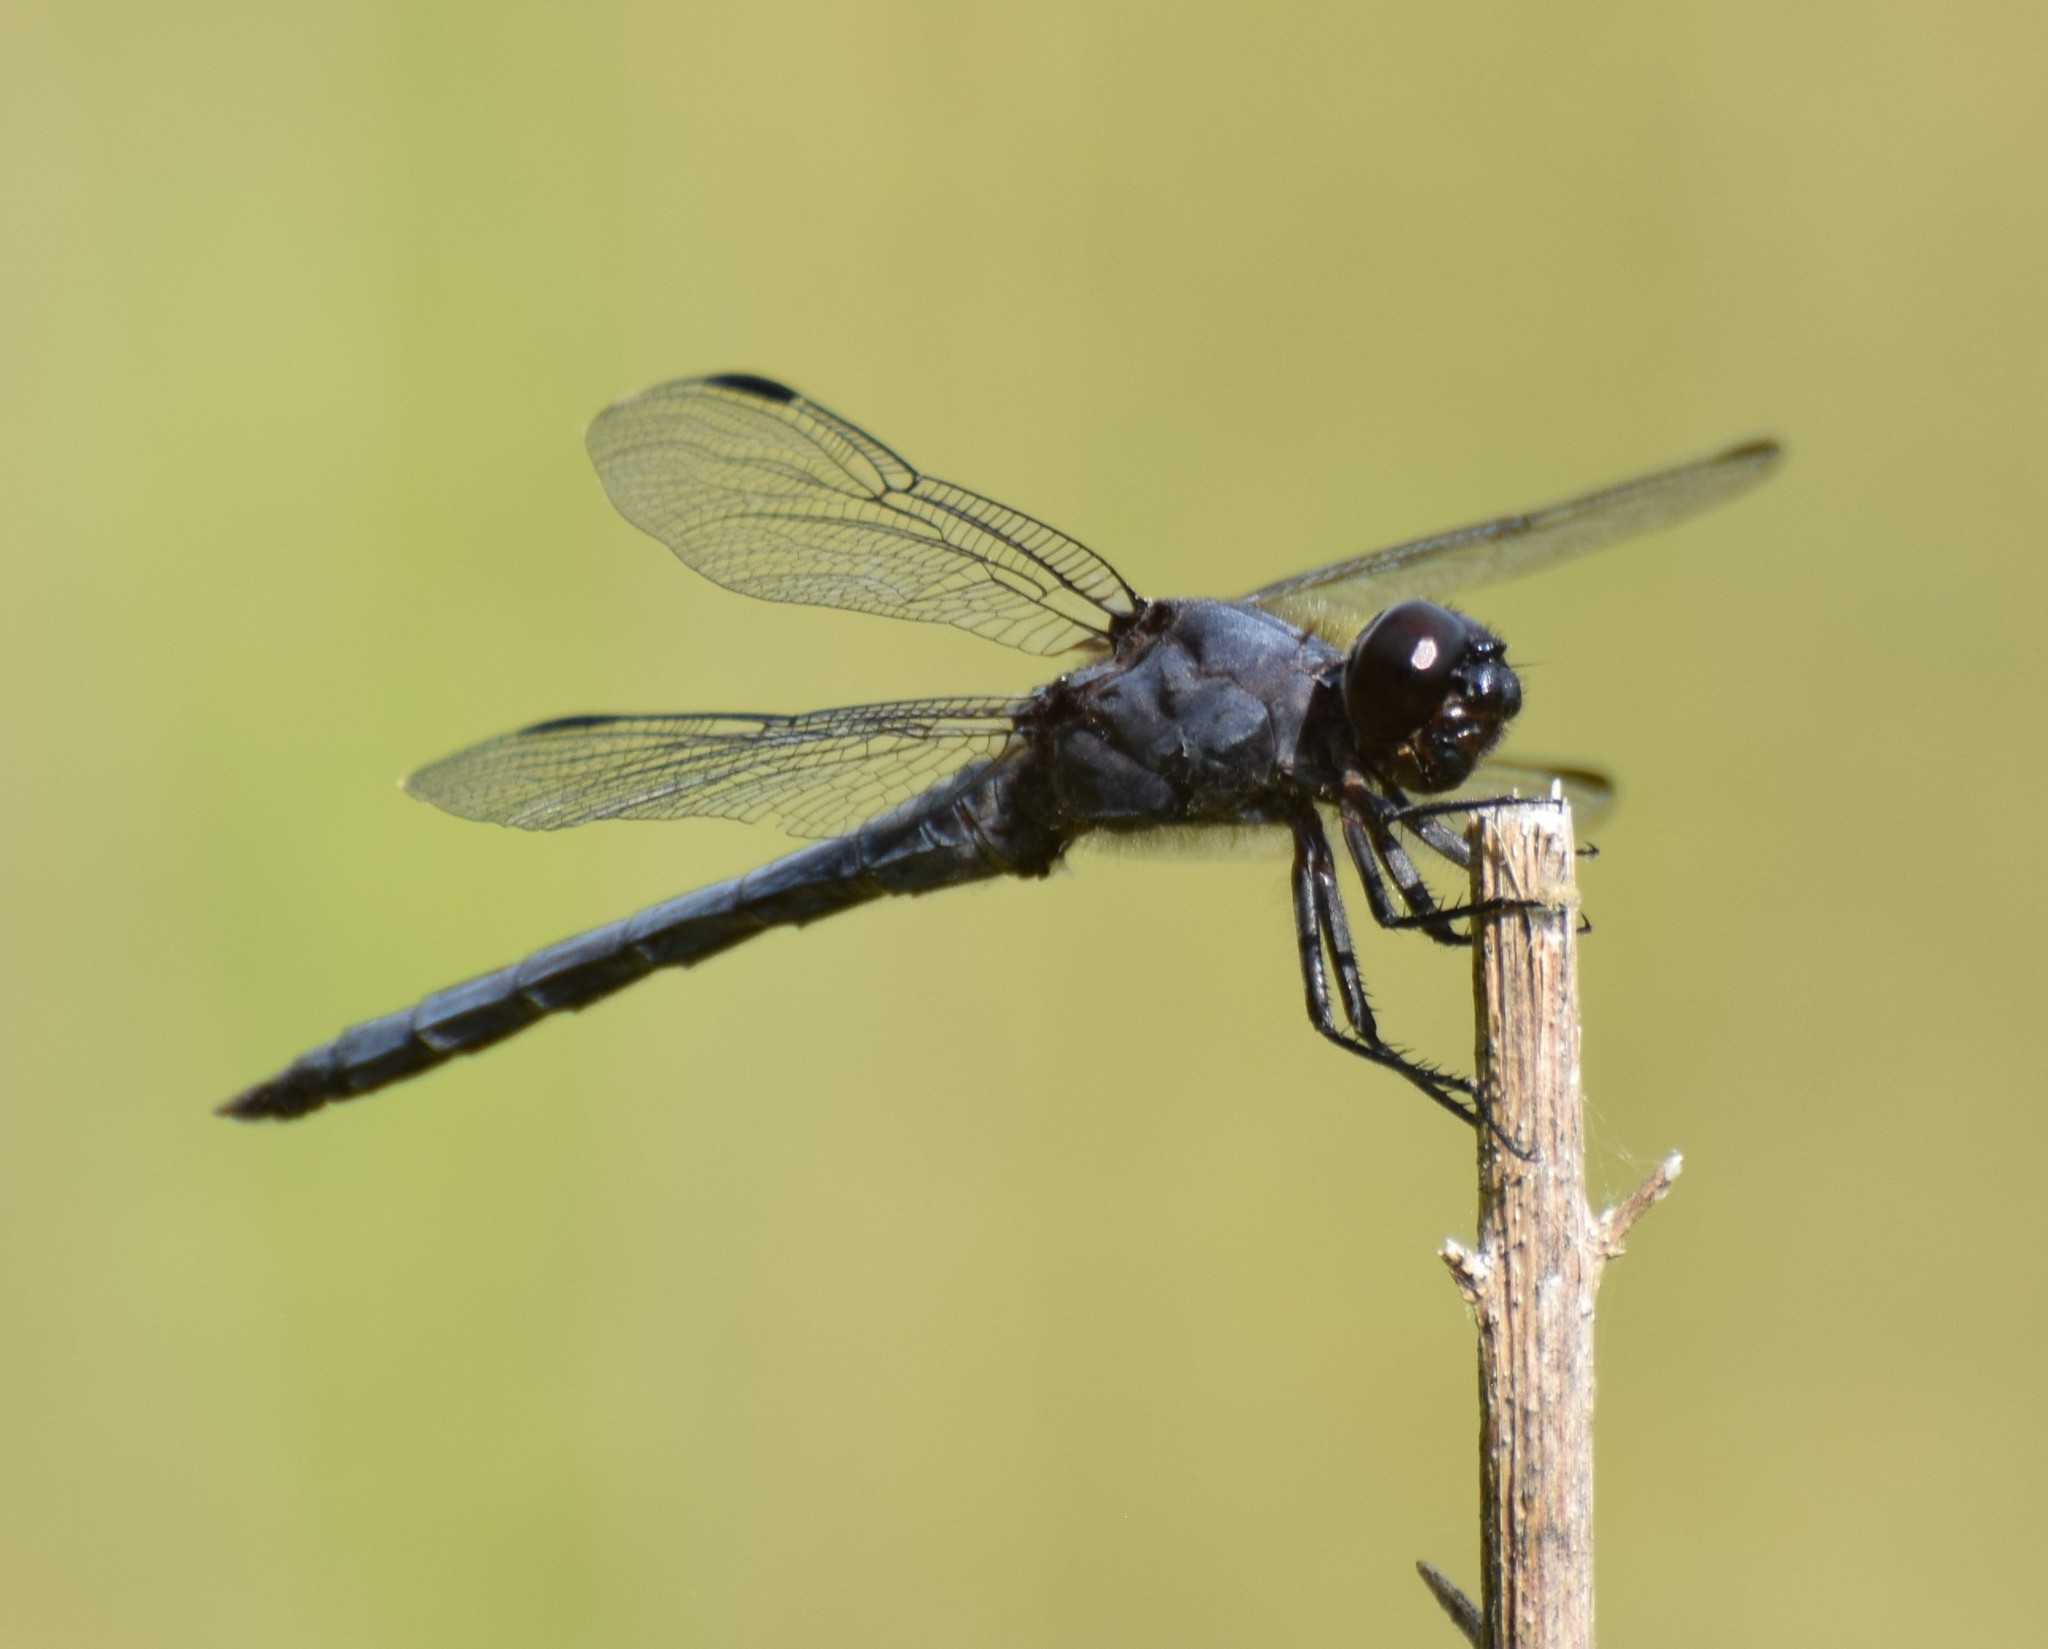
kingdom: Animalia
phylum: Arthropoda
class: Insecta
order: Odonata
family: Libellulidae
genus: Libellula
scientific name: Libellula incesta
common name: Slaty skimmer
